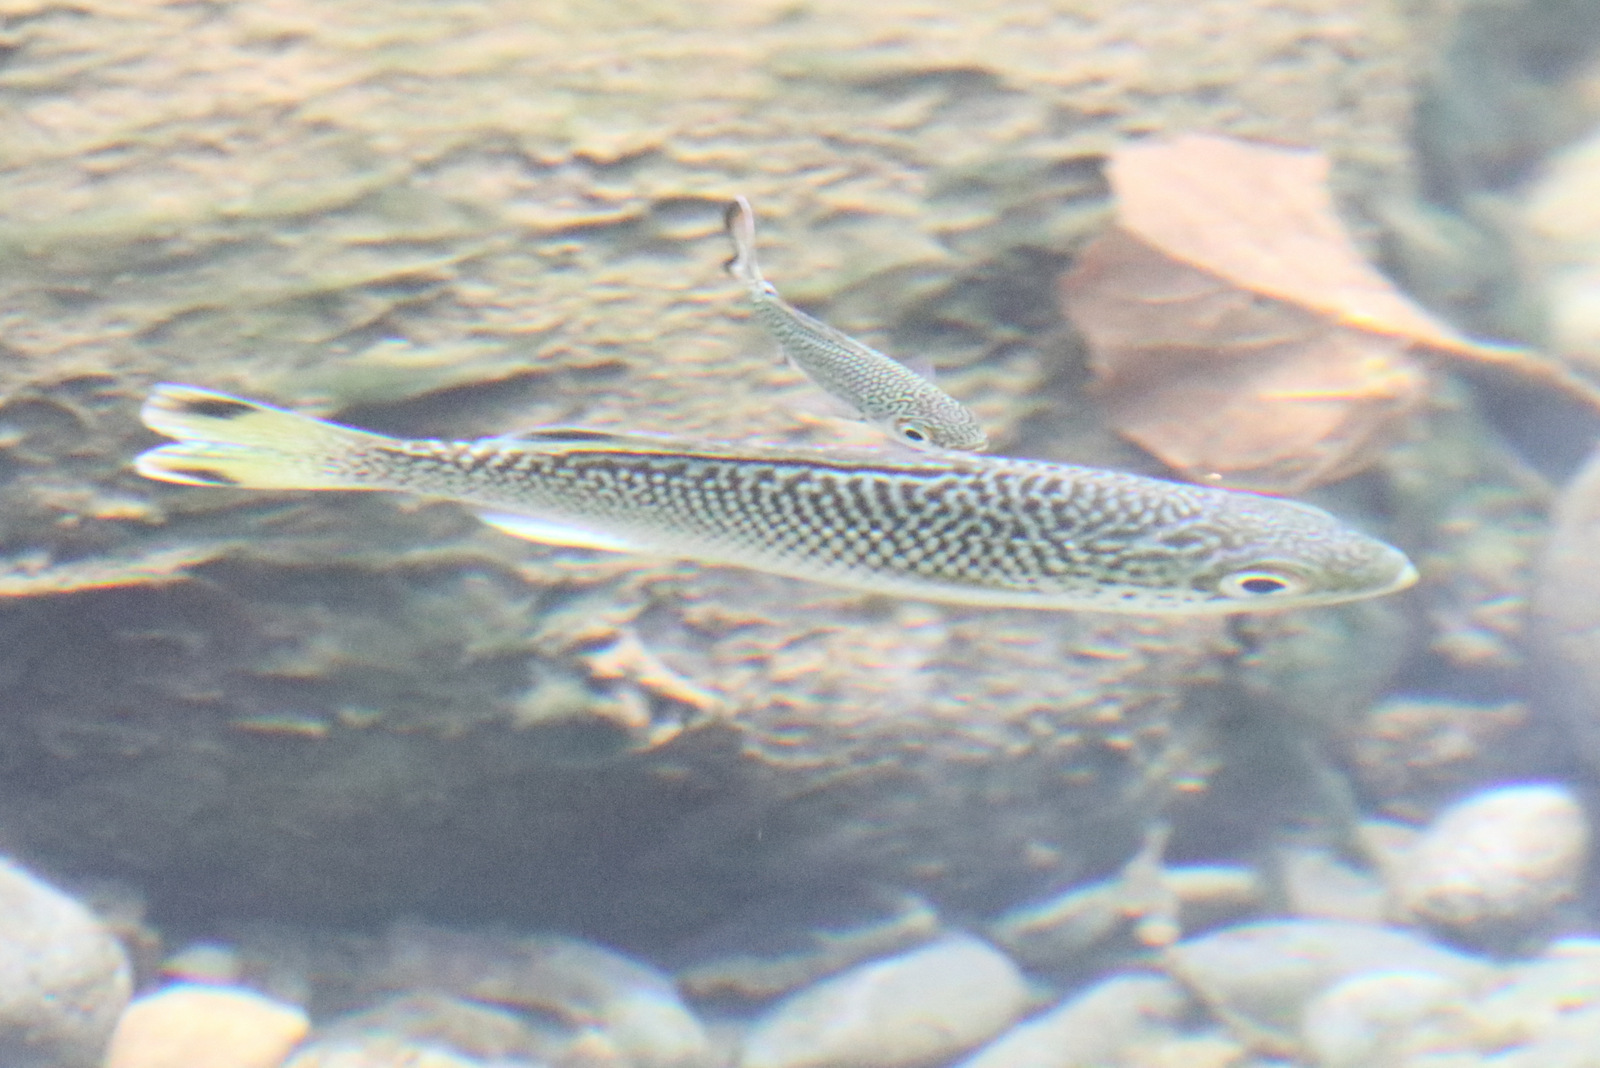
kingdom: Animalia
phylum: Chordata
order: Perciformes
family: Kuhliidae
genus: Kuhlia
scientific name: Kuhlia rupestris
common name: Rock flagtail
